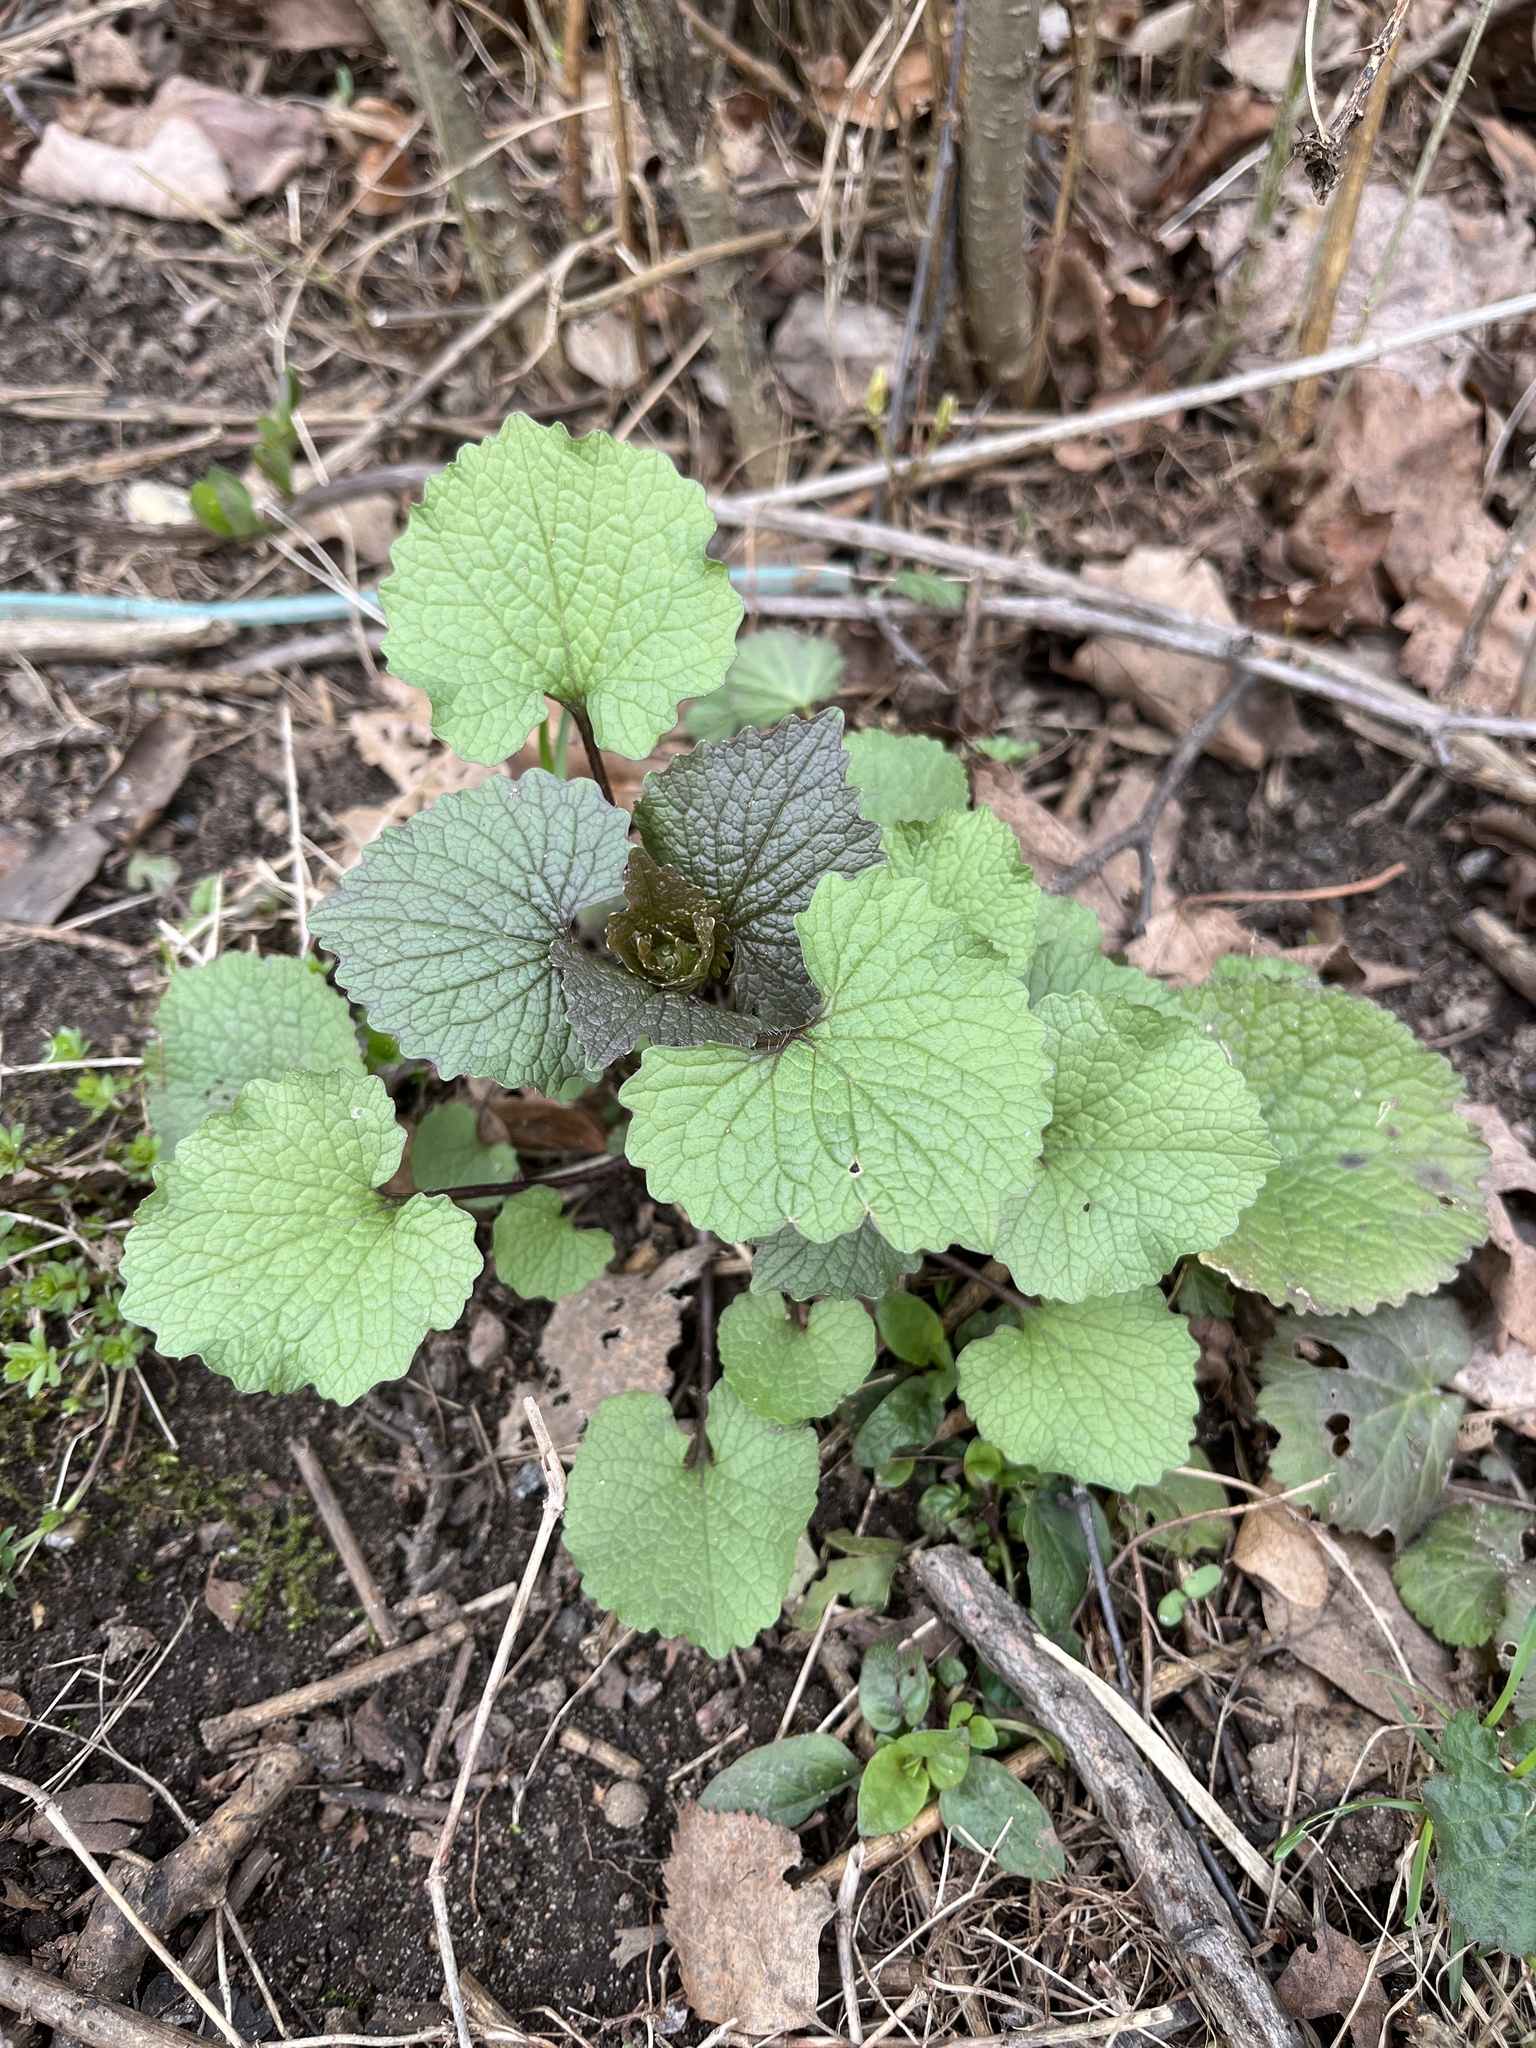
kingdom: Plantae
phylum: Tracheophyta
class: Magnoliopsida
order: Brassicales
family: Brassicaceae
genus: Alliaria
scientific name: Alliaria petiolata
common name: Garlic mustard
